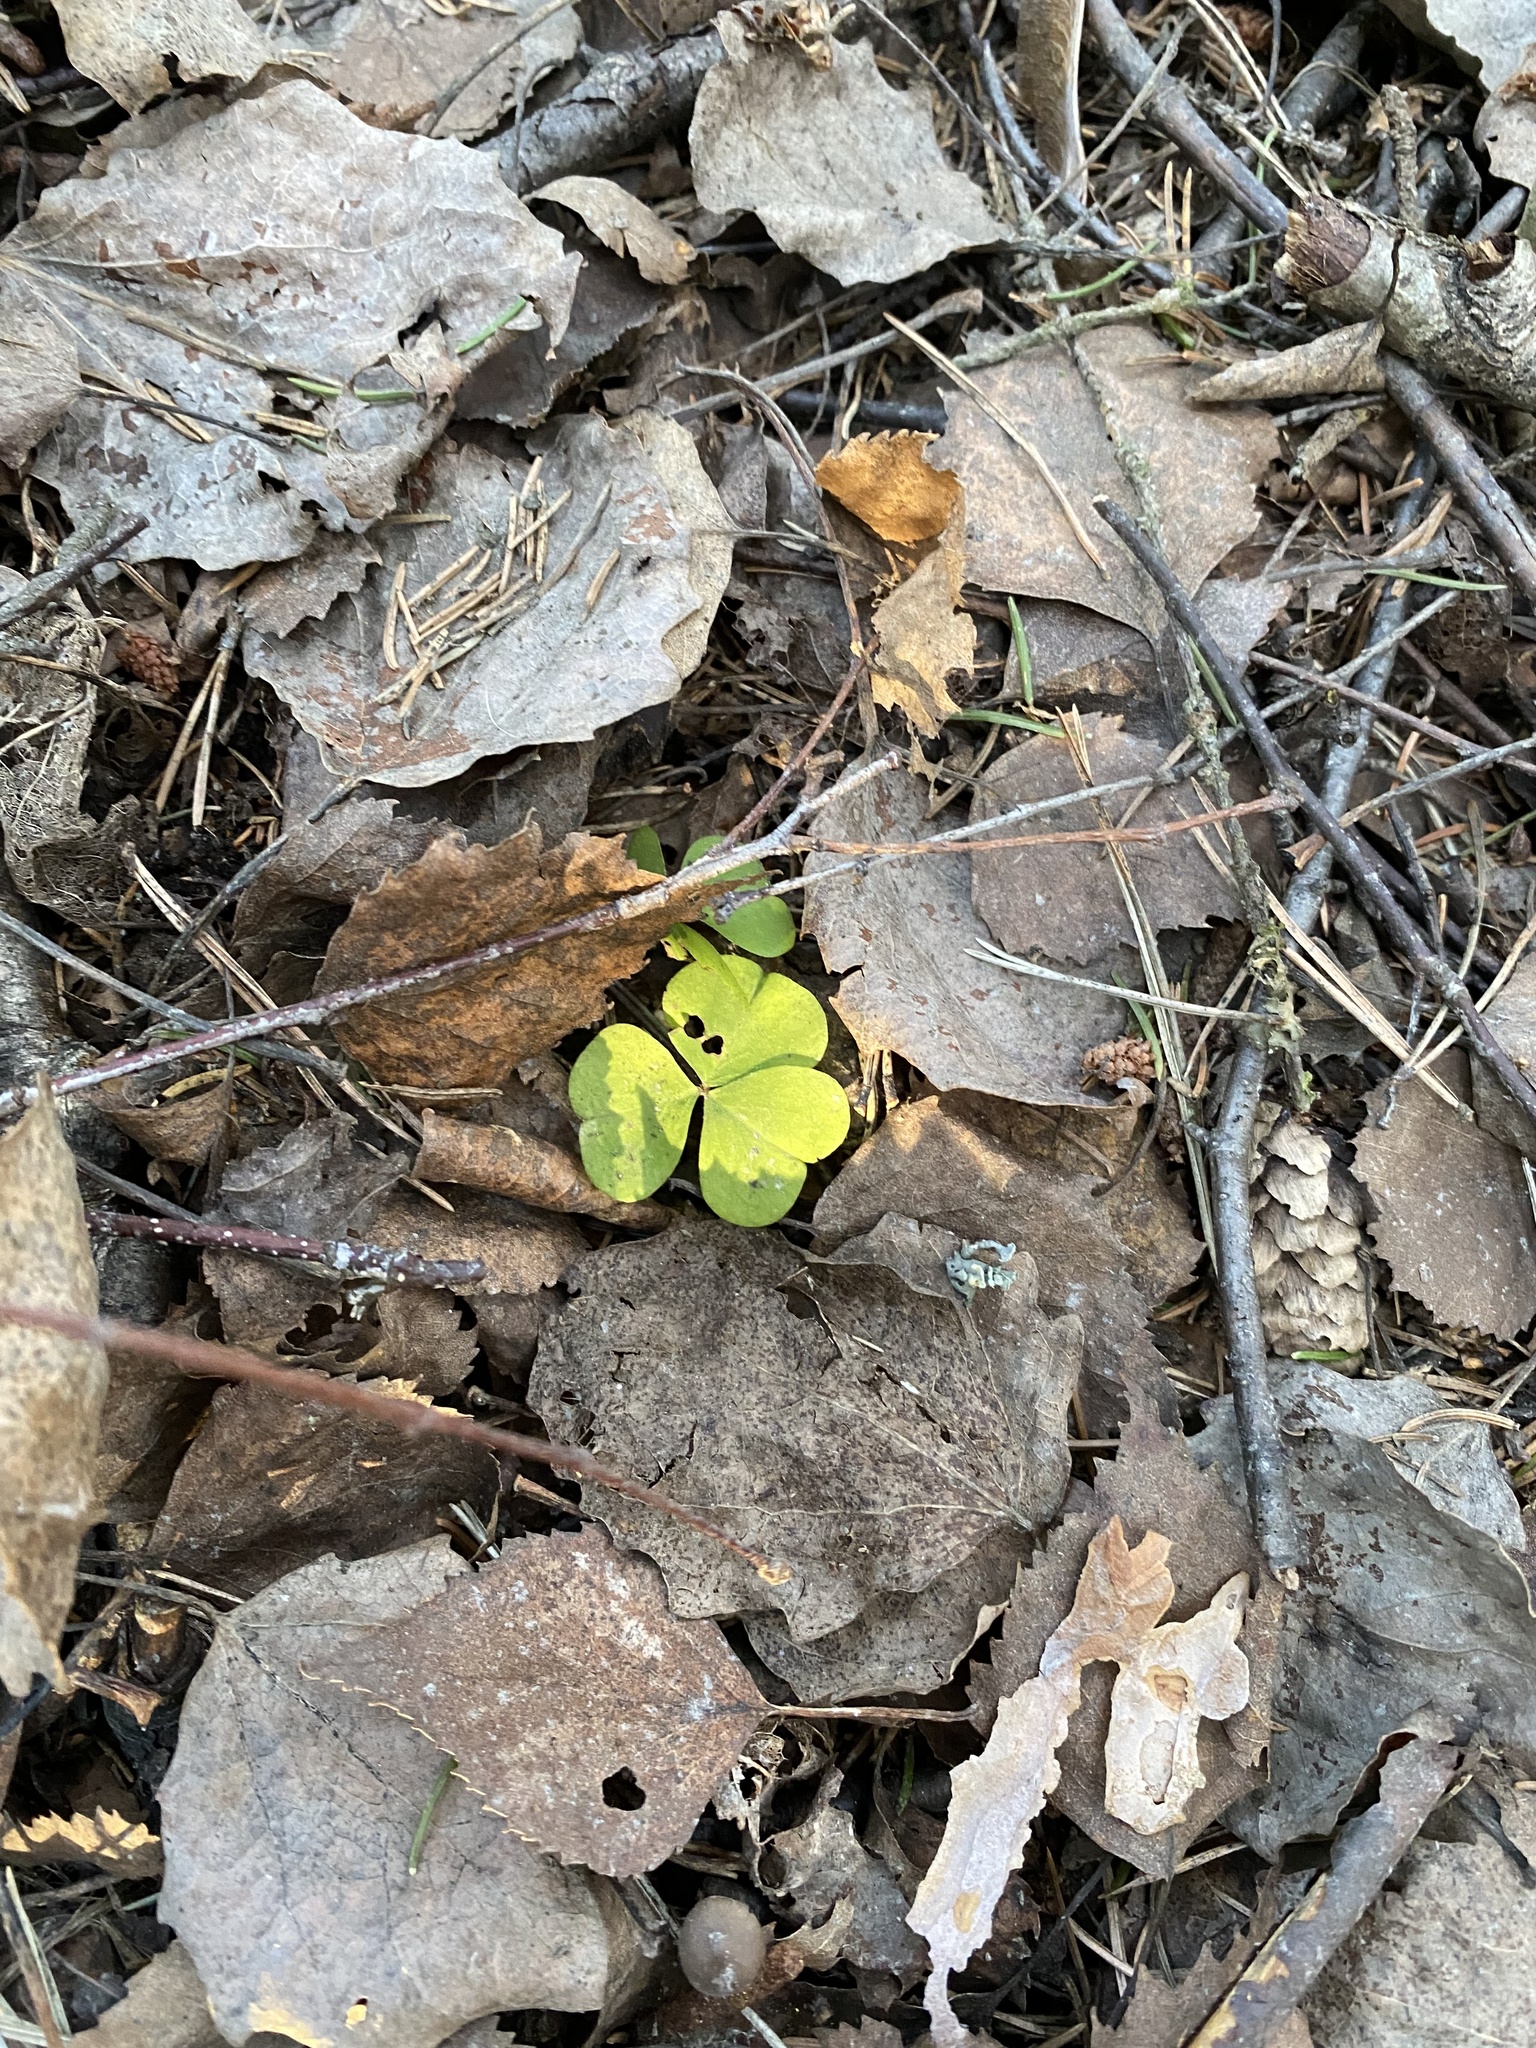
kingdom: Plantae
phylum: Tracheophyta
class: Magnoliopsida
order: Oxalidales
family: Oxalidaceae
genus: Oxalis
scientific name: Oxalis acetosella
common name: Wood-sorrel
